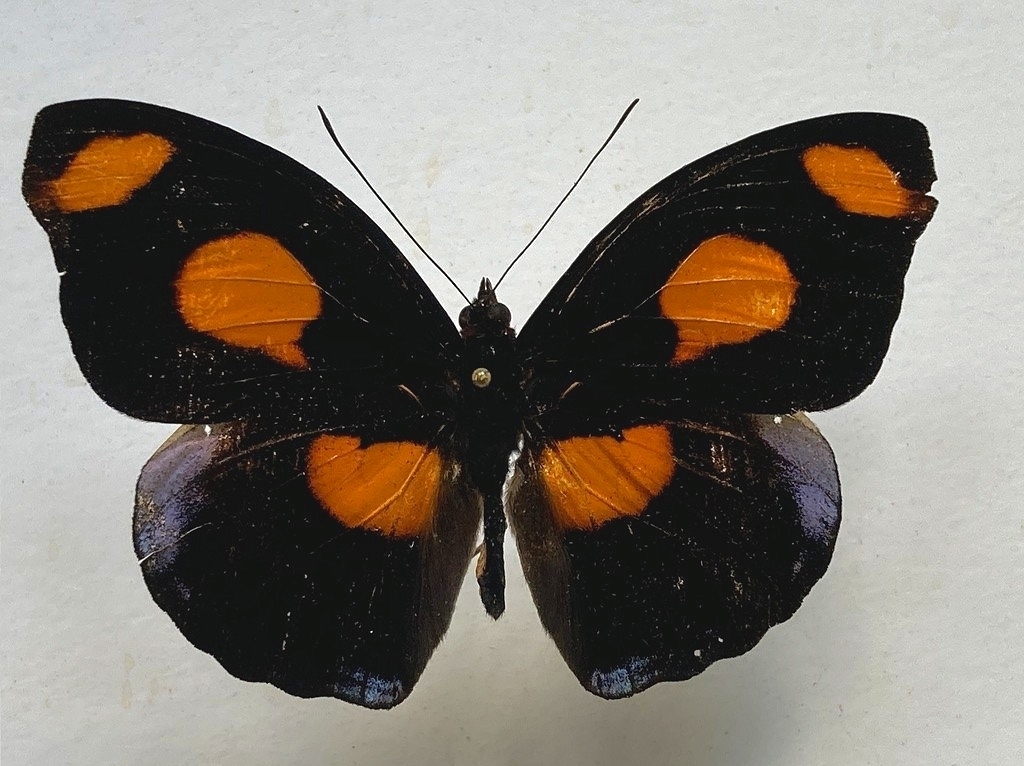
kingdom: Animalia
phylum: Arthropoda
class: Insecta
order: Lepidoptera
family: Nymphalidae
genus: Catonephele
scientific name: Catonephele numilia
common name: Blue-frosted banner
